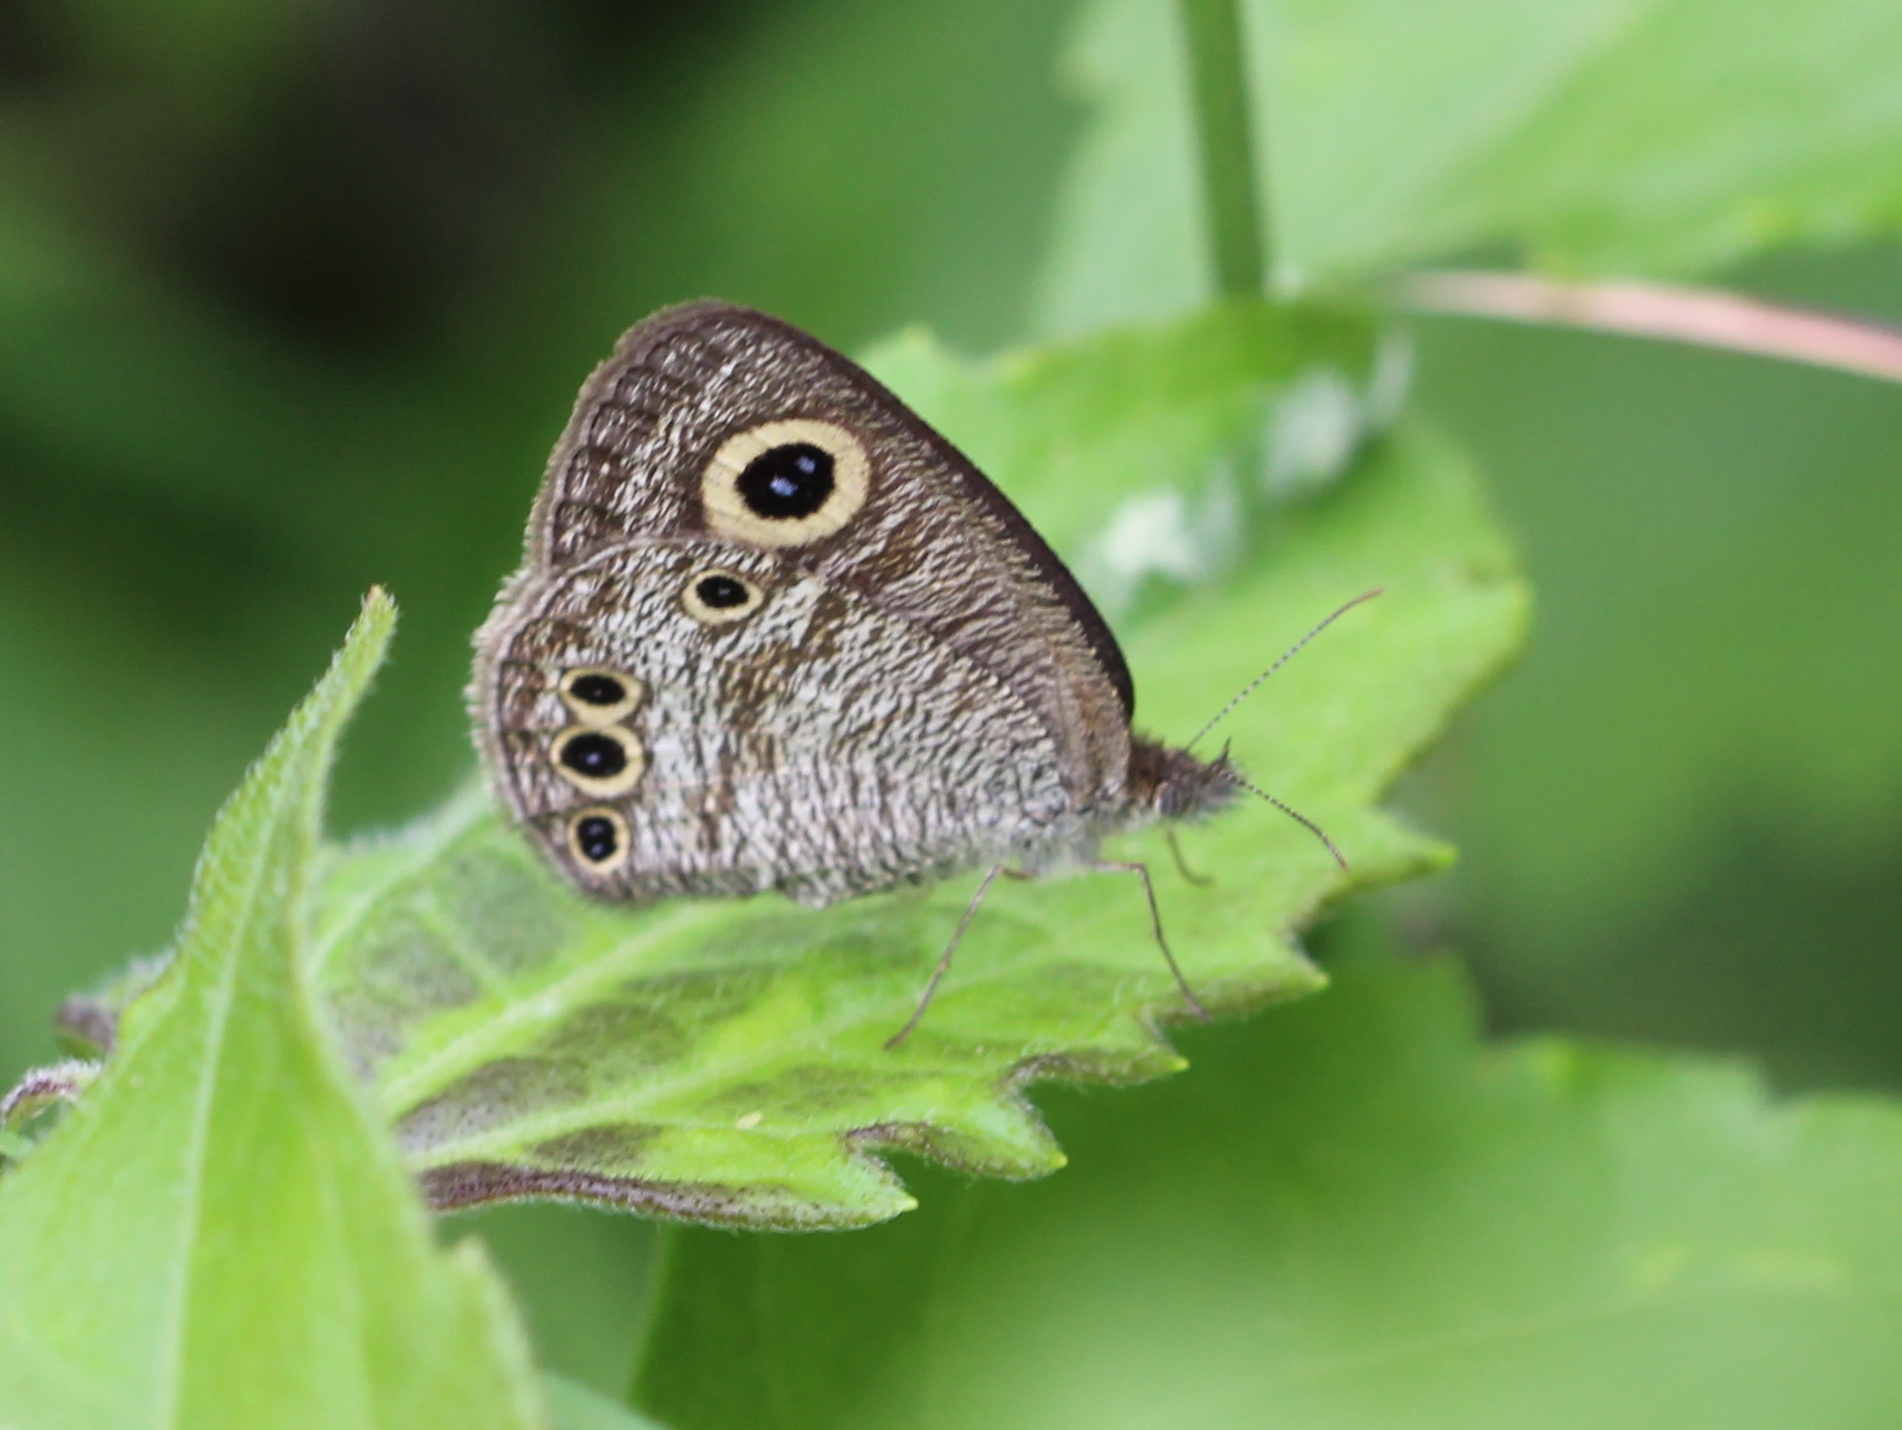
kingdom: Animalia
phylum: Arthropoda
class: Insecta
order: Lepidoptera
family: Nymphalidae
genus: Ypthima
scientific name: Ypthima huebneri
